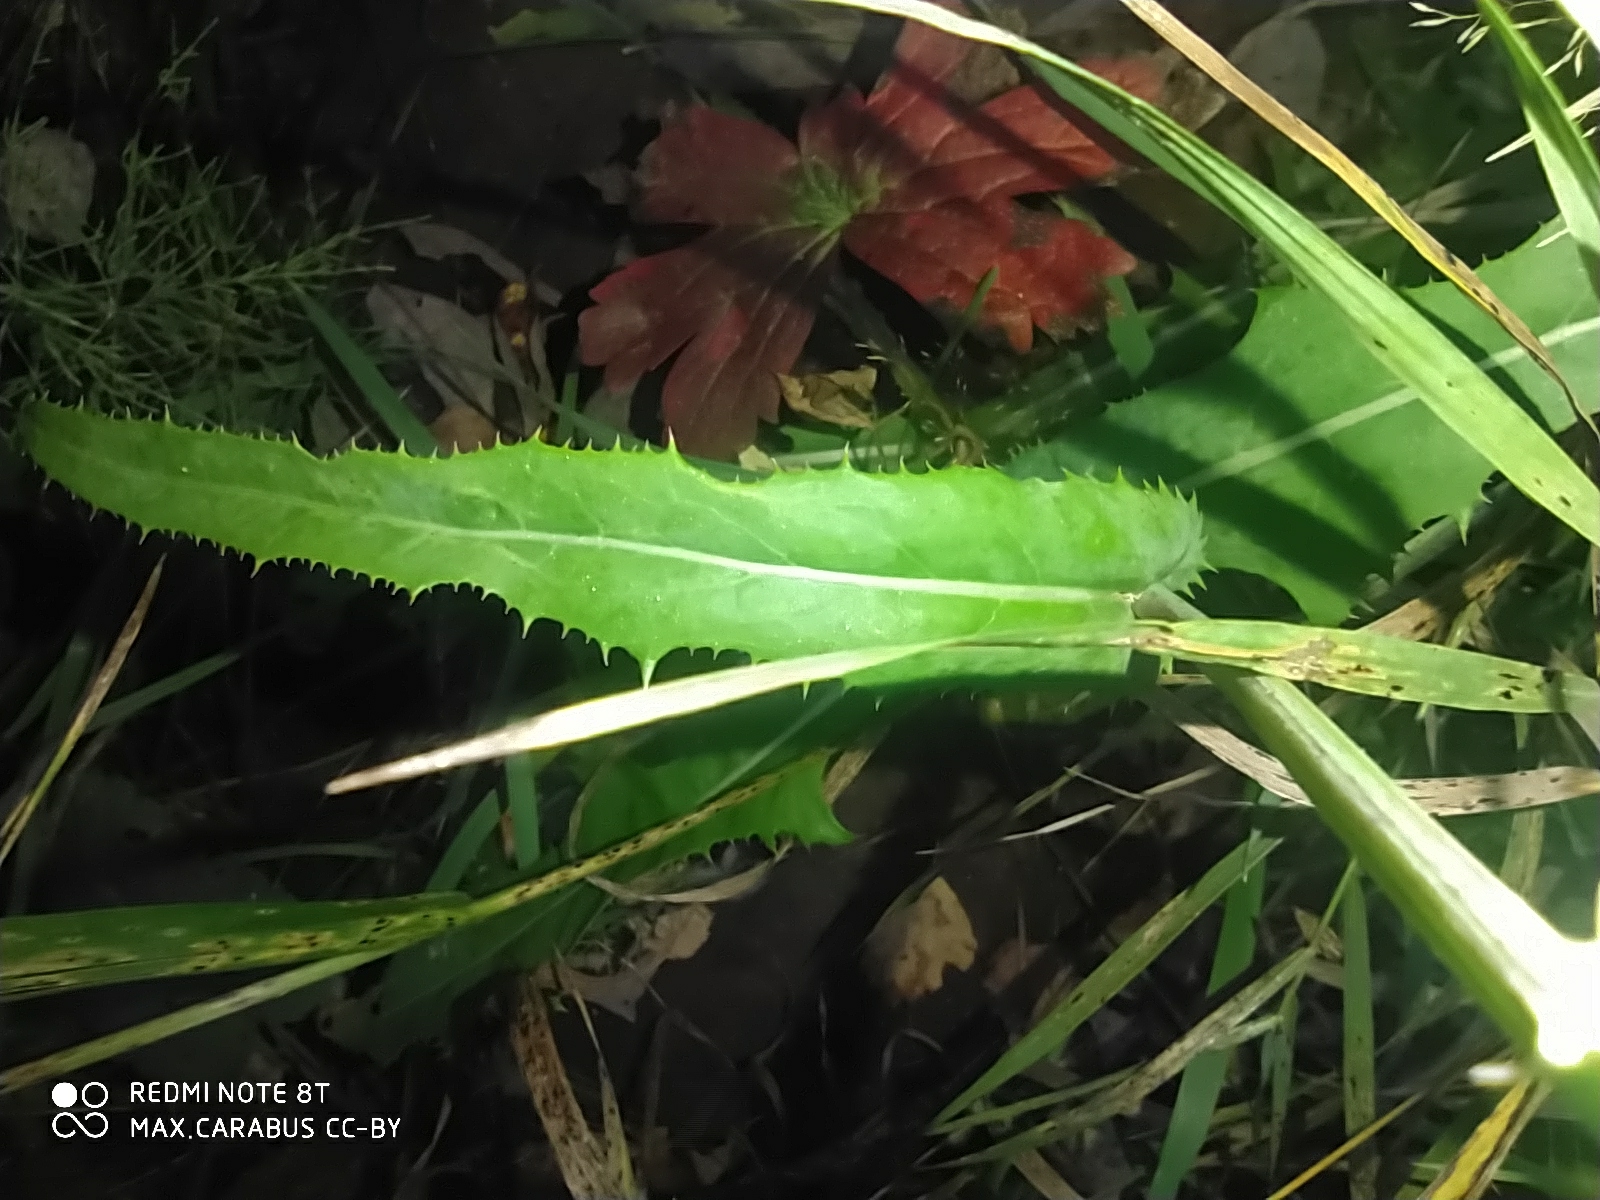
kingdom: Plantae
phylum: Tracheophyta
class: Magnoliopsida
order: Asterales
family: Asteraceae
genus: Sonchus
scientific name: Sonchus arvensis
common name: Perennial sow-thistle
